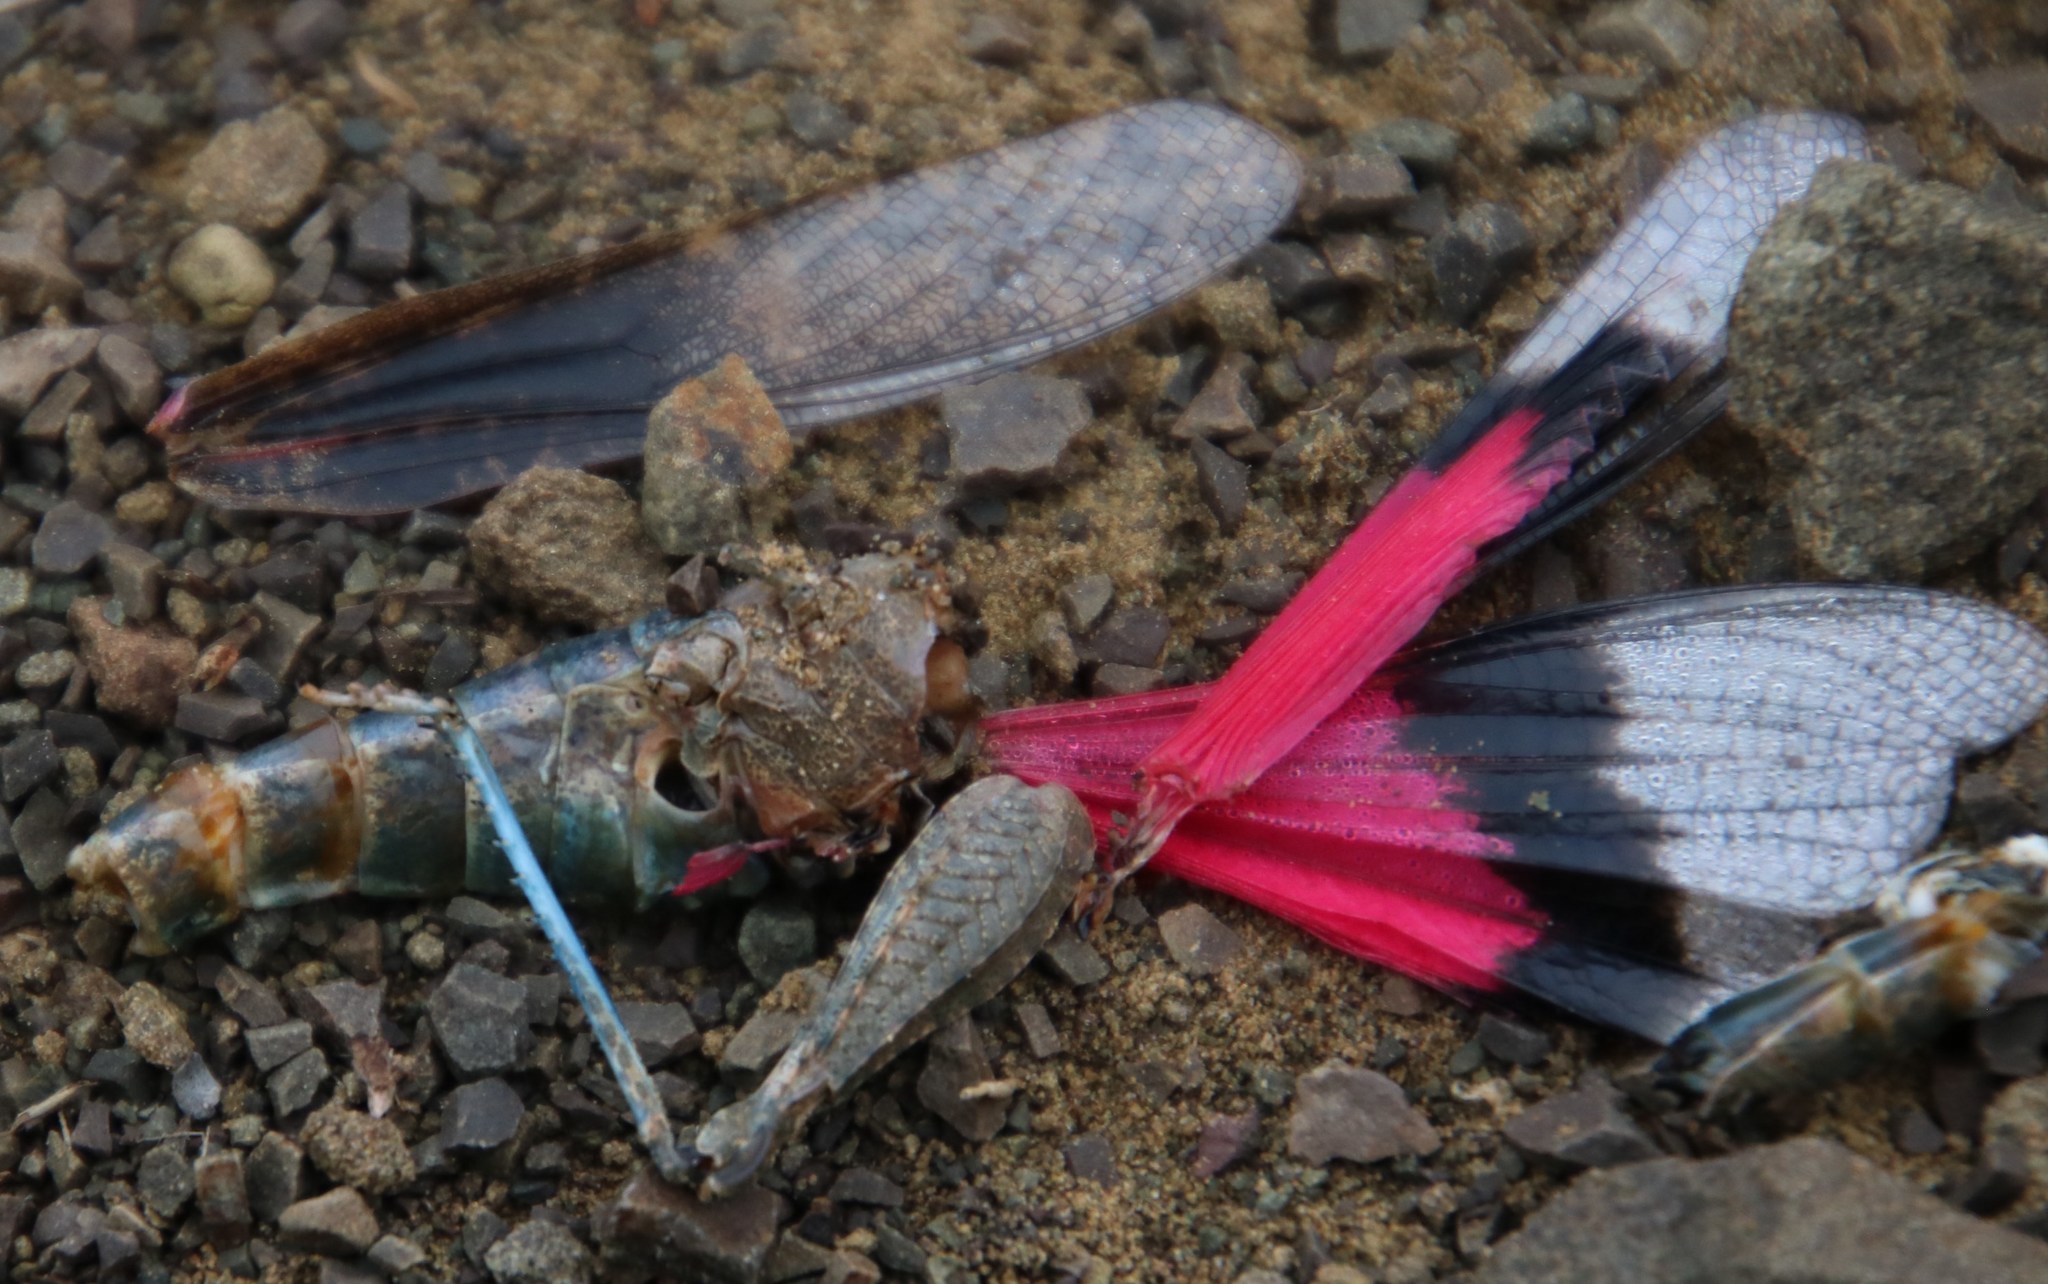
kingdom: Animalia
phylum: Arthropoda
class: Insecta
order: Orthoptera
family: Acrididae
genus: Scintharista
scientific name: Scintharista magnifica
